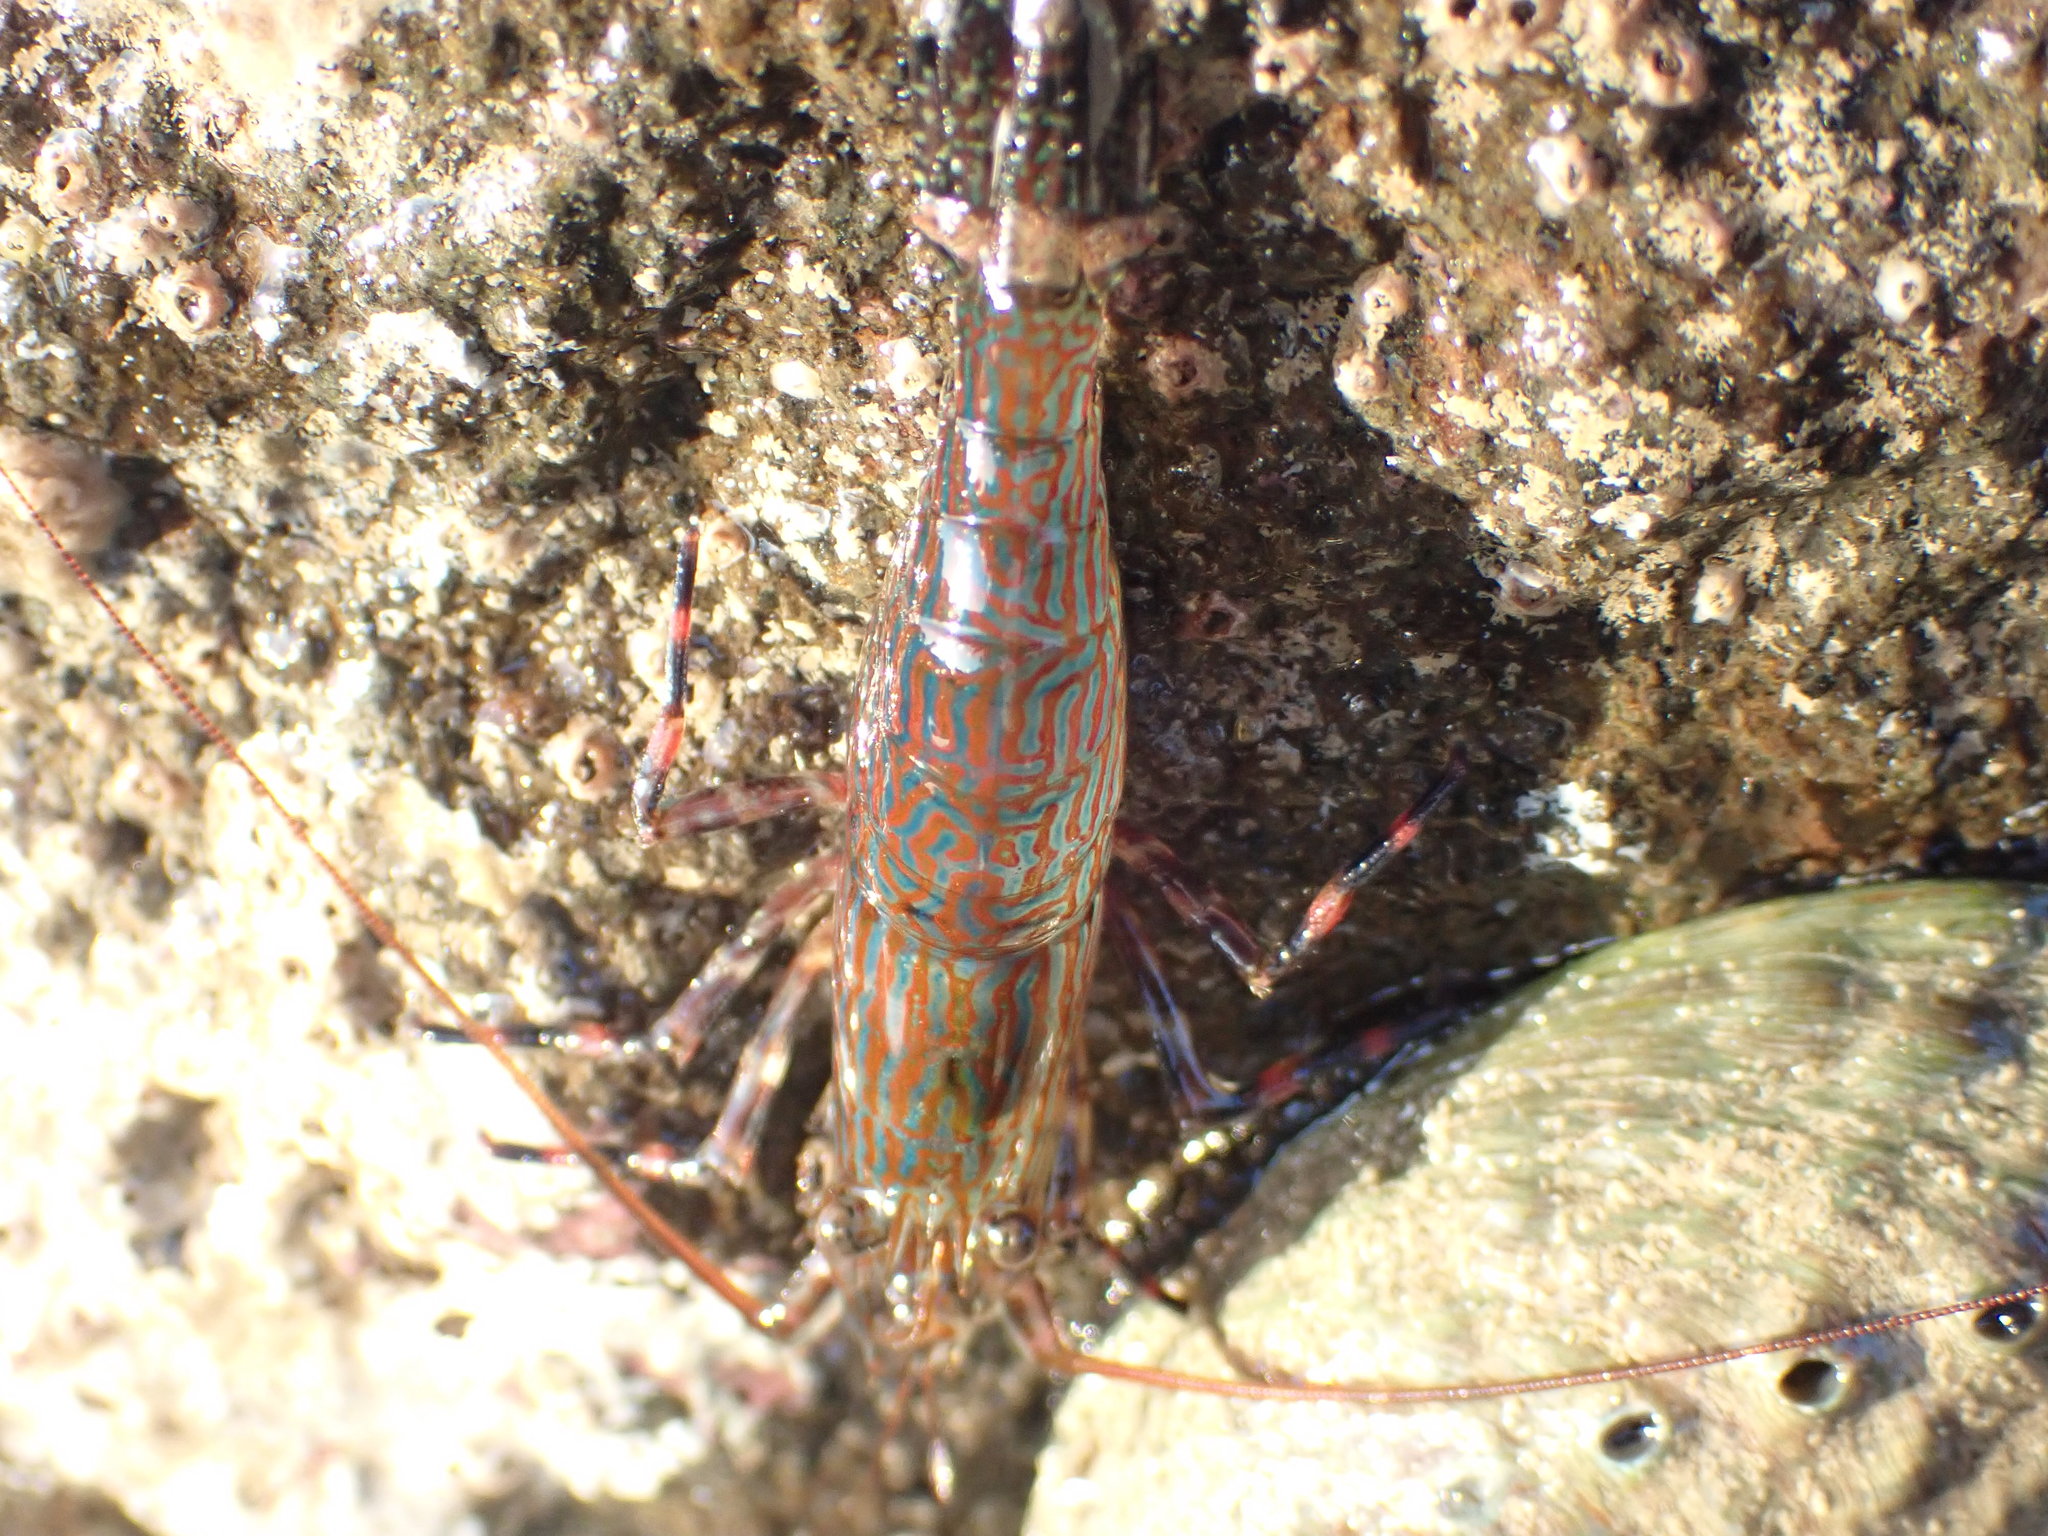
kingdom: Animalia
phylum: Arthropoda
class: Malacostraca
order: Decapoda
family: Hippolytidae
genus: Alope
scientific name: Alope spinifrons
